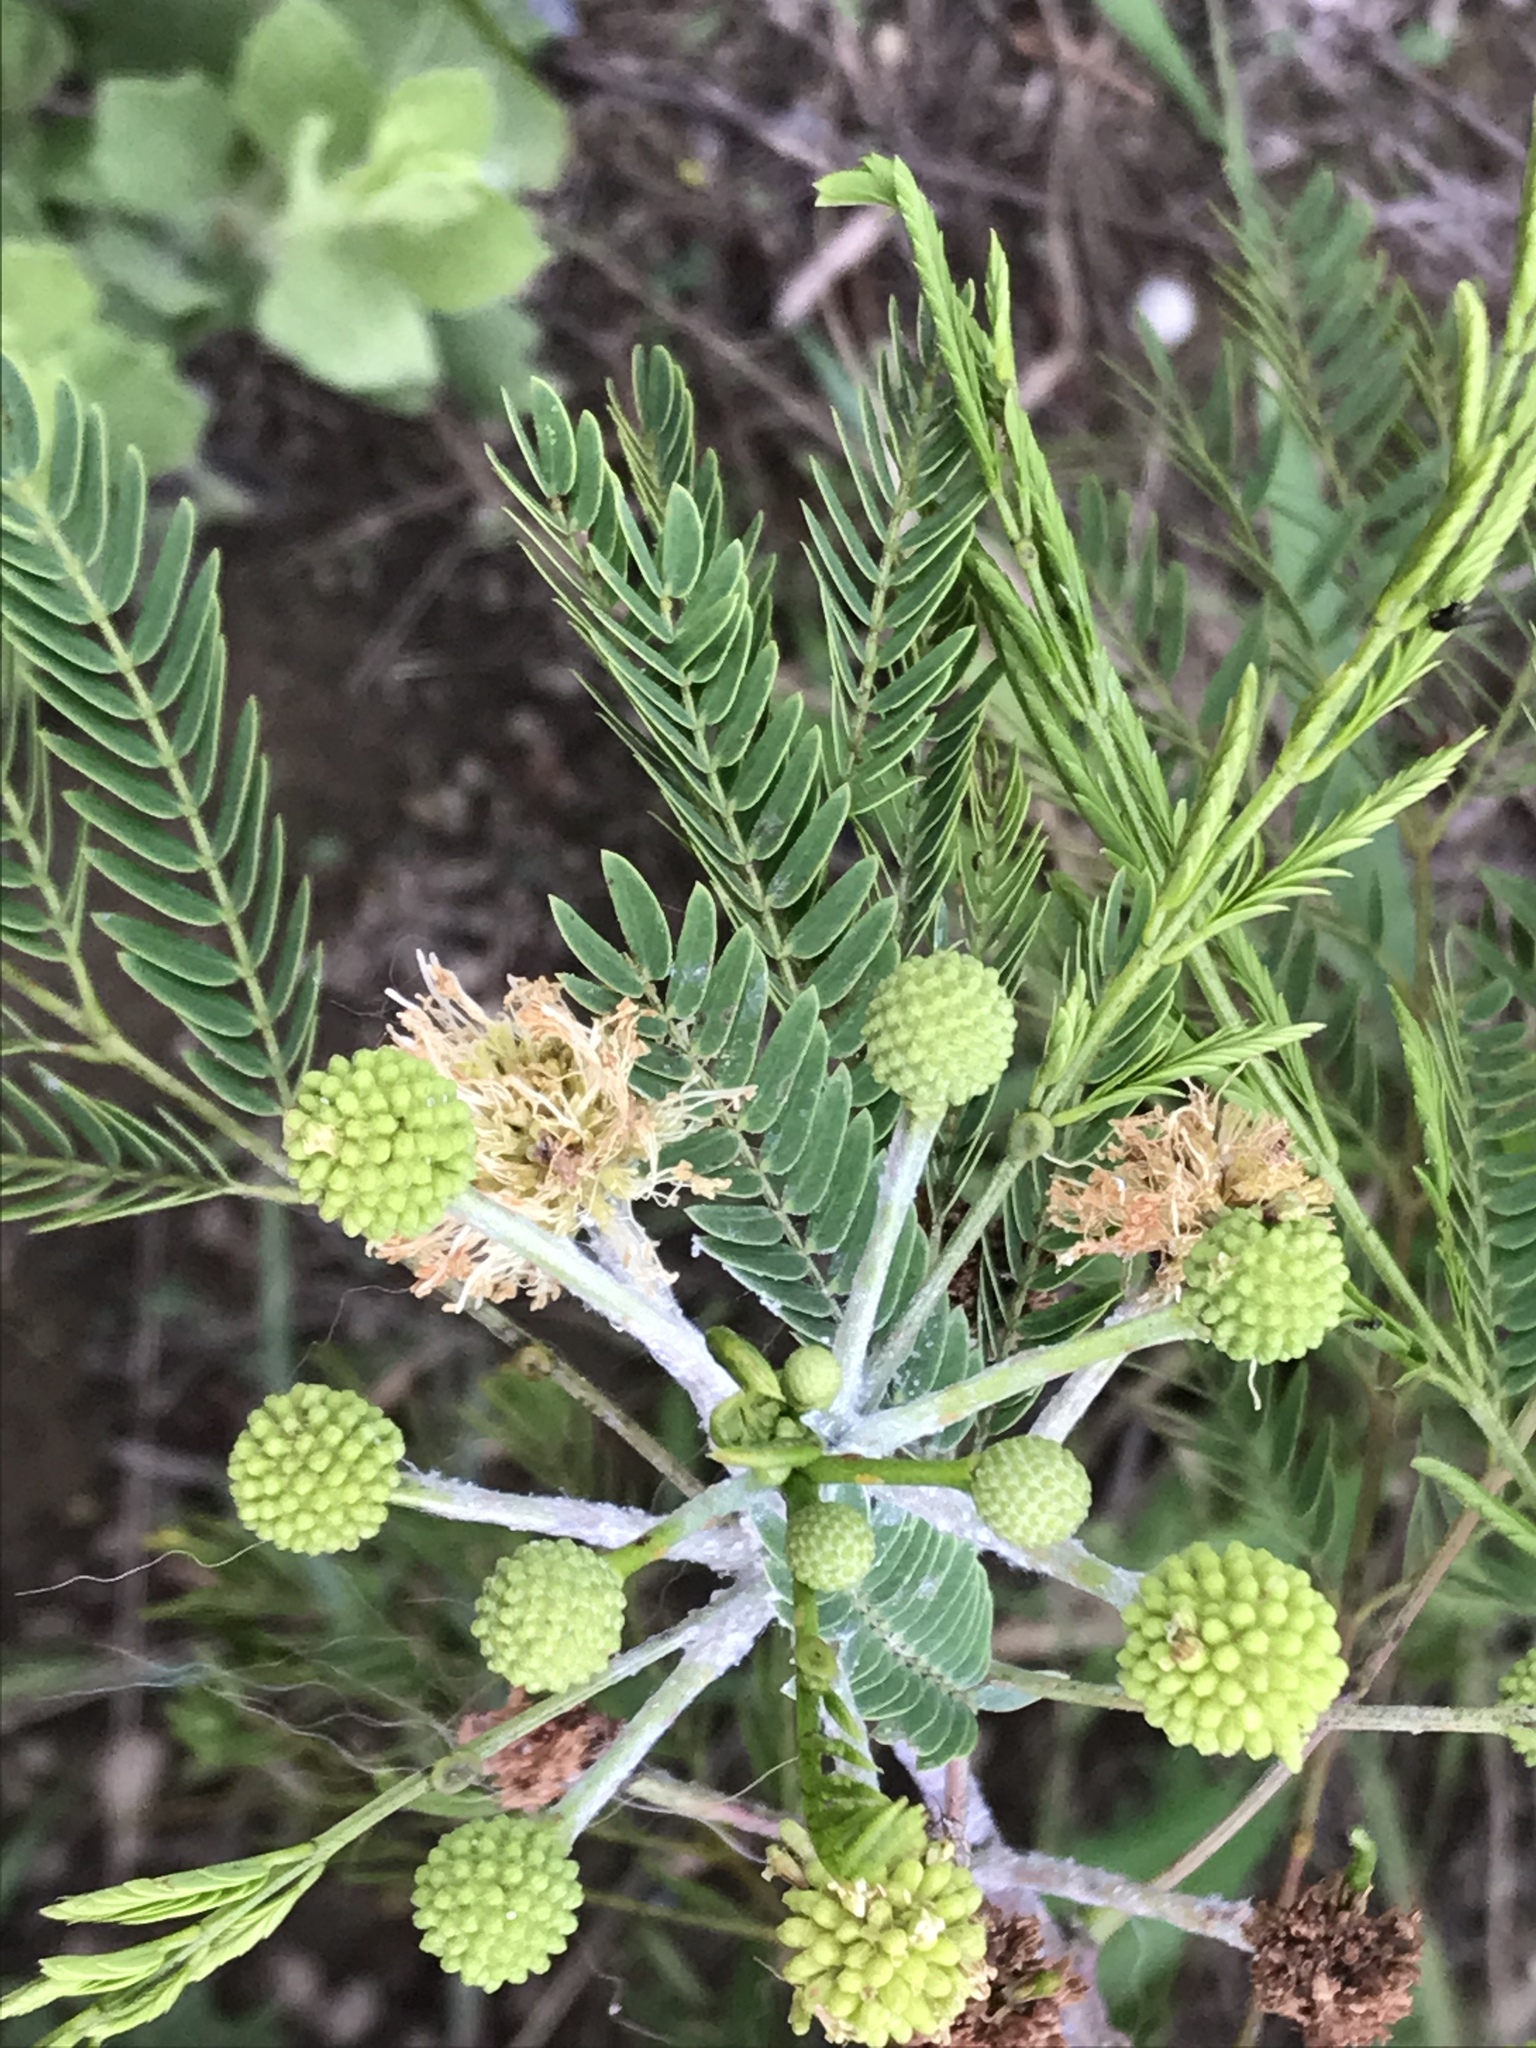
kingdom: Plantae
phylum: Tracheophyta
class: Magnoliopsida
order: Fabales
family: Fabaceae
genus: Leucaena
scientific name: Leucaena leucocephala
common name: White leadtree
